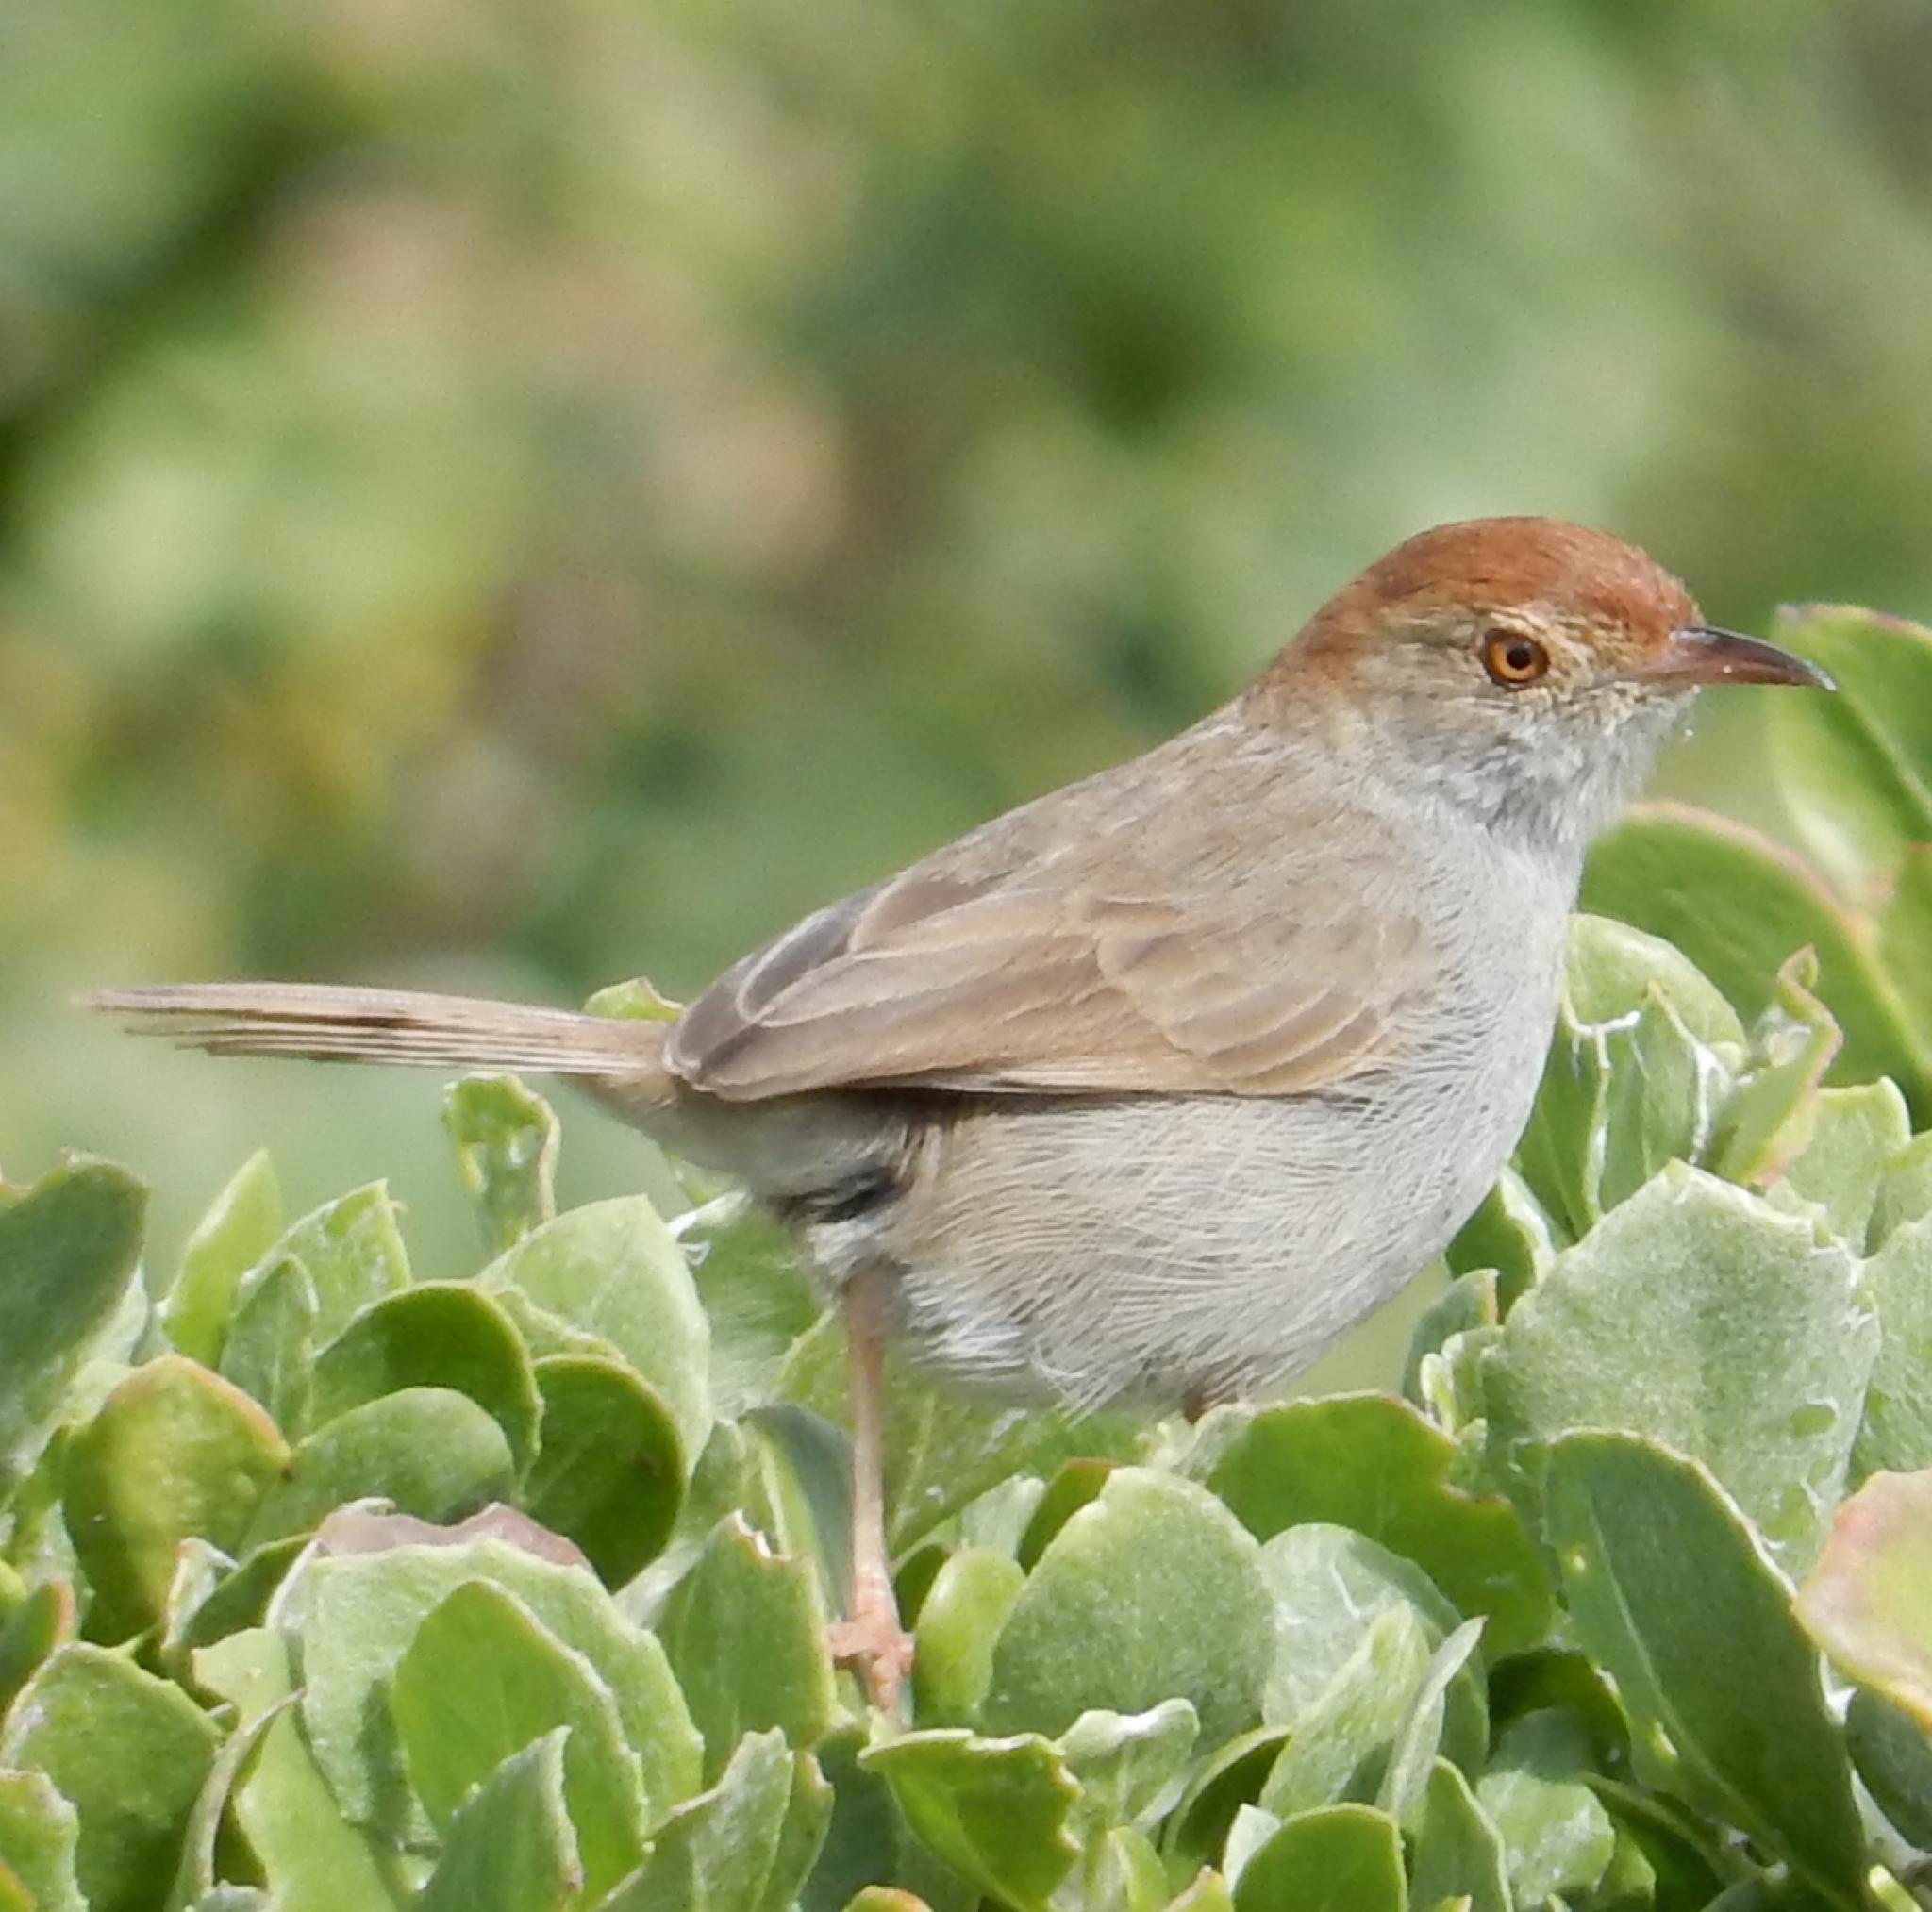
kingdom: Animalia
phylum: Chordata
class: Aves
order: Passeriformes
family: Cisticolidae
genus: Cisticola
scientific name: Cisticola fulvicapilla
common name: Neddicky
